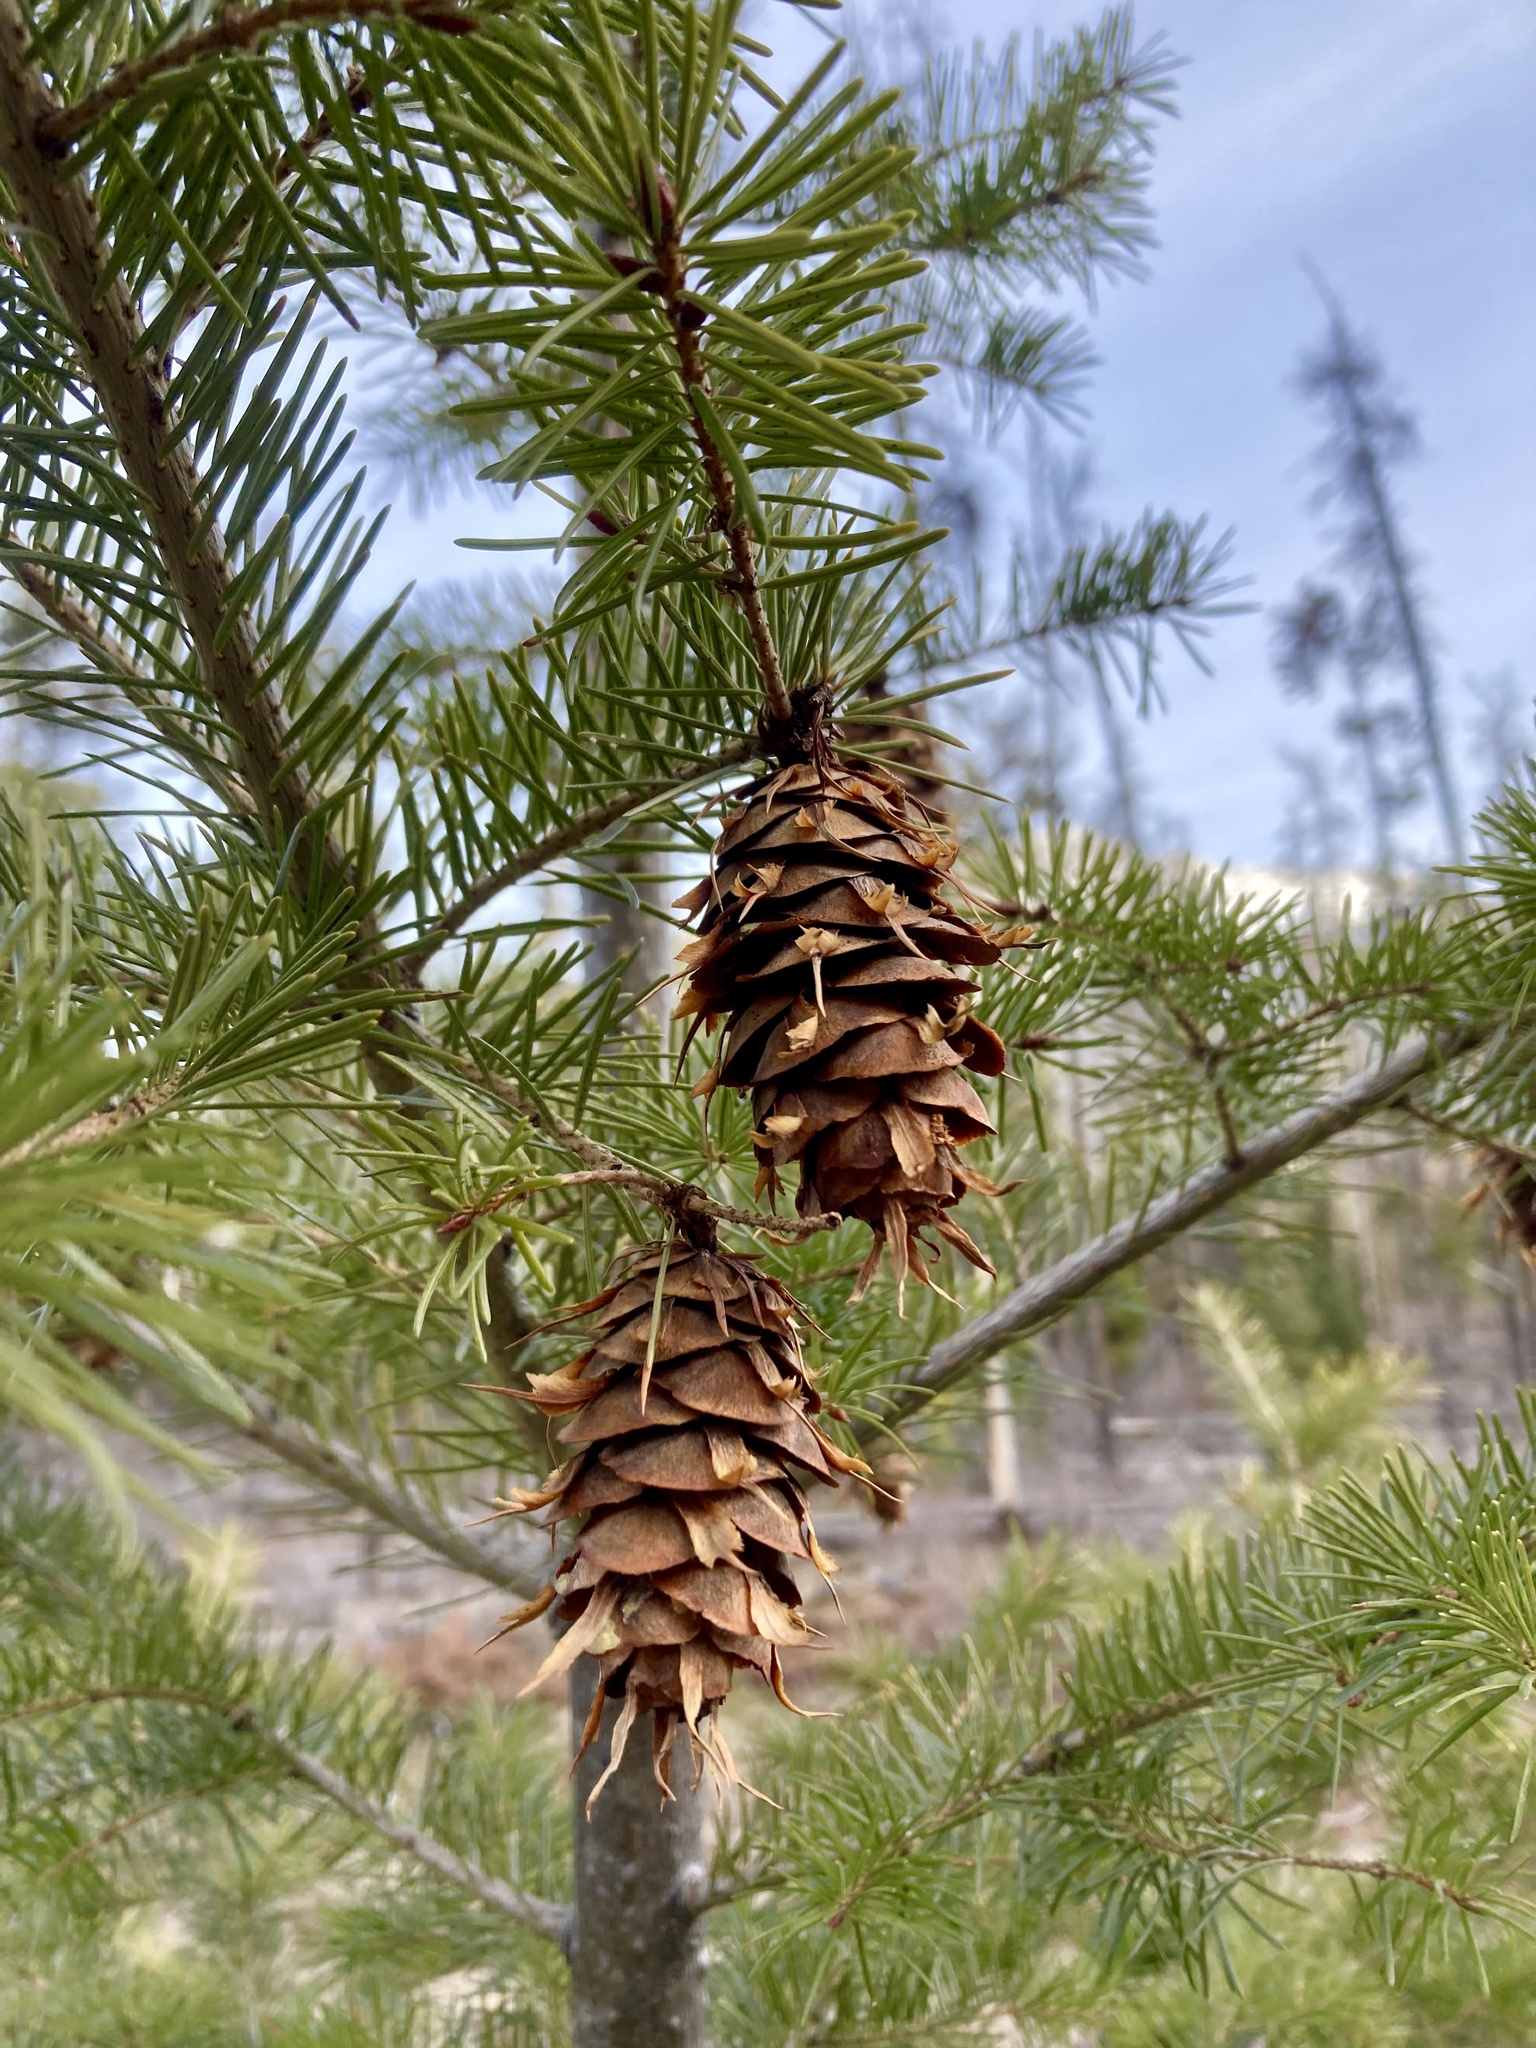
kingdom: Plantae
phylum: Tracheophyta
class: Pinopsida
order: Pinales
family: Pinaceae
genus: Pseudotsuga
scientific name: Pseudotsuga menziesii
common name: Douglas fir
